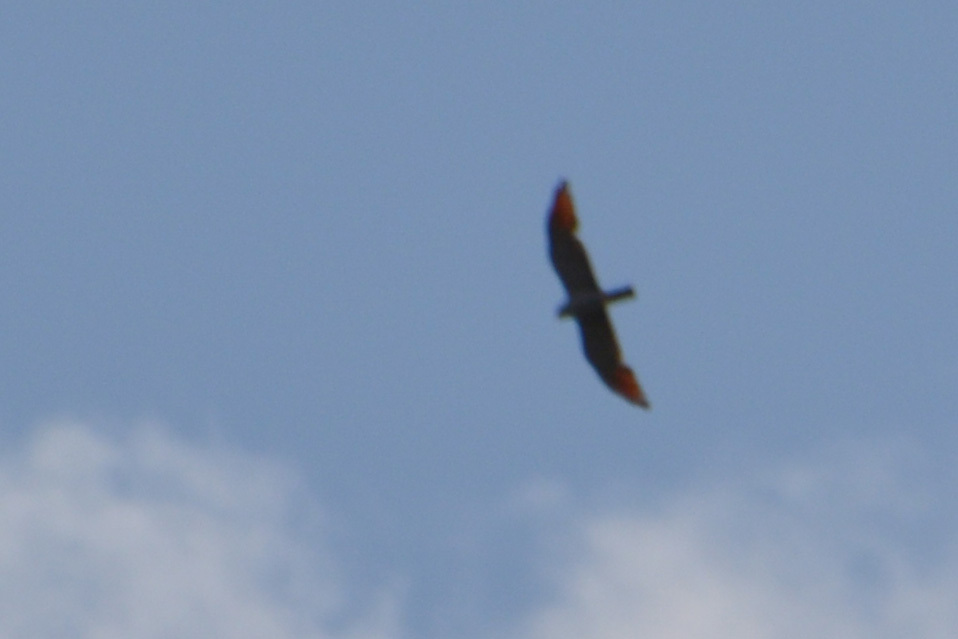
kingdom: Animalia
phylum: Chordata
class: Aves
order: Accipitriformes
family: Accipitridae
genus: Ictinia
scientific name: Ictinia plumbea
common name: Plumbeous kite
